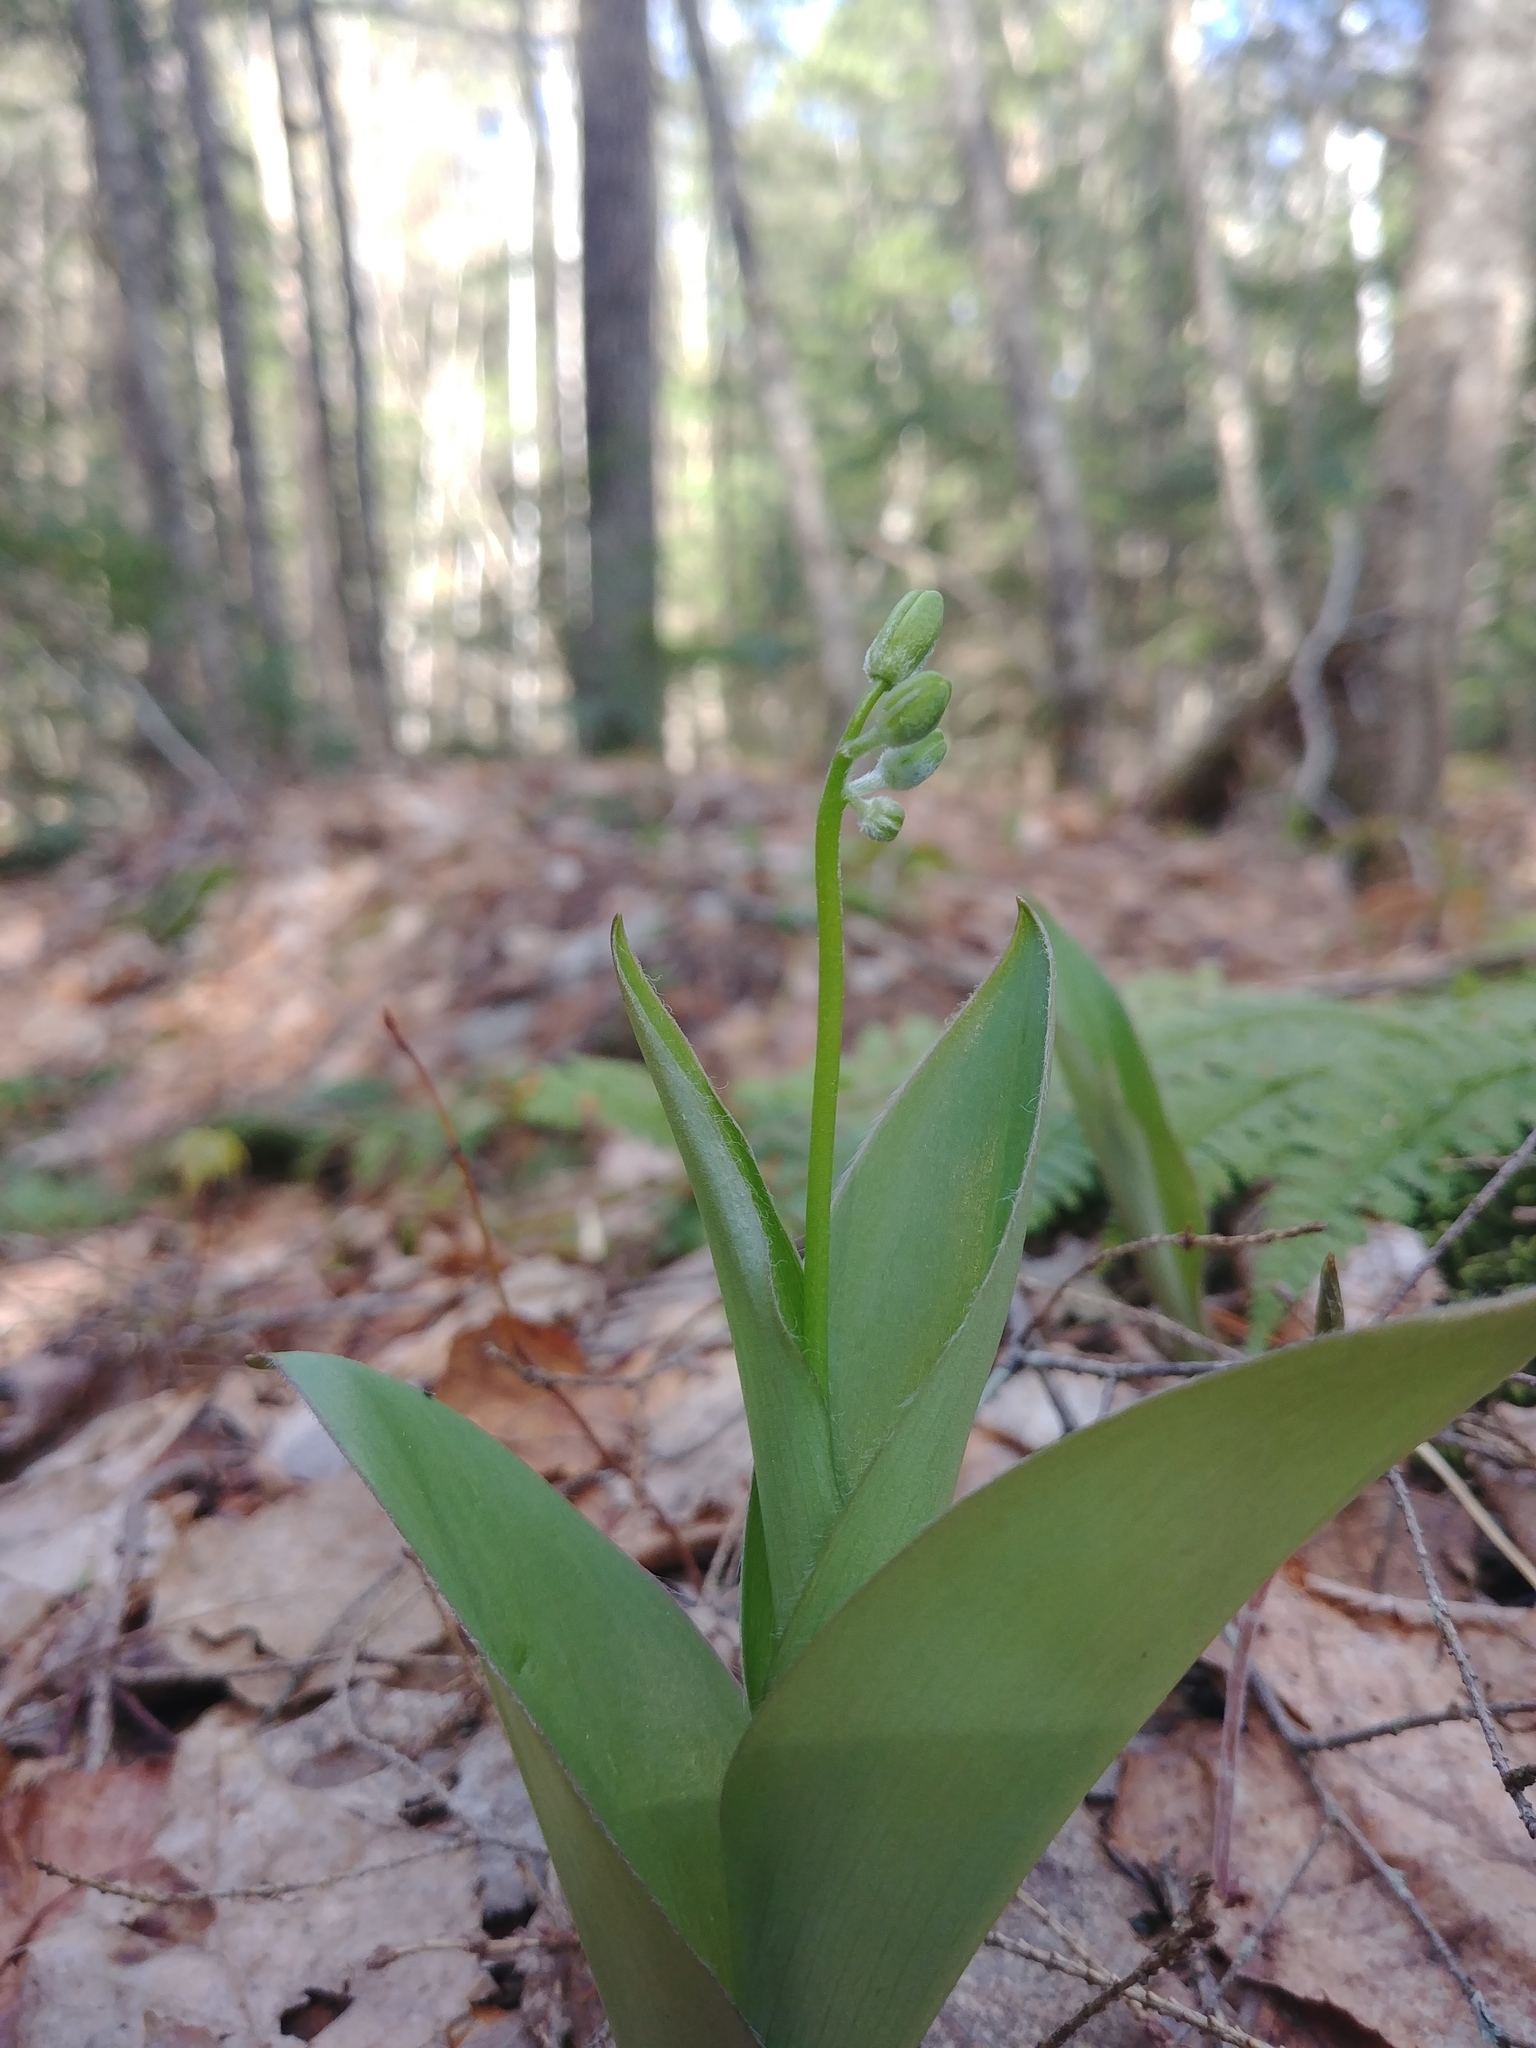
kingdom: Plantae
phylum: Tracheophyta
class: Liliopsida
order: Liliales
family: Liliaceae
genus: Clintonia
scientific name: Clintonia borealis
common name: Yellow clintonia
